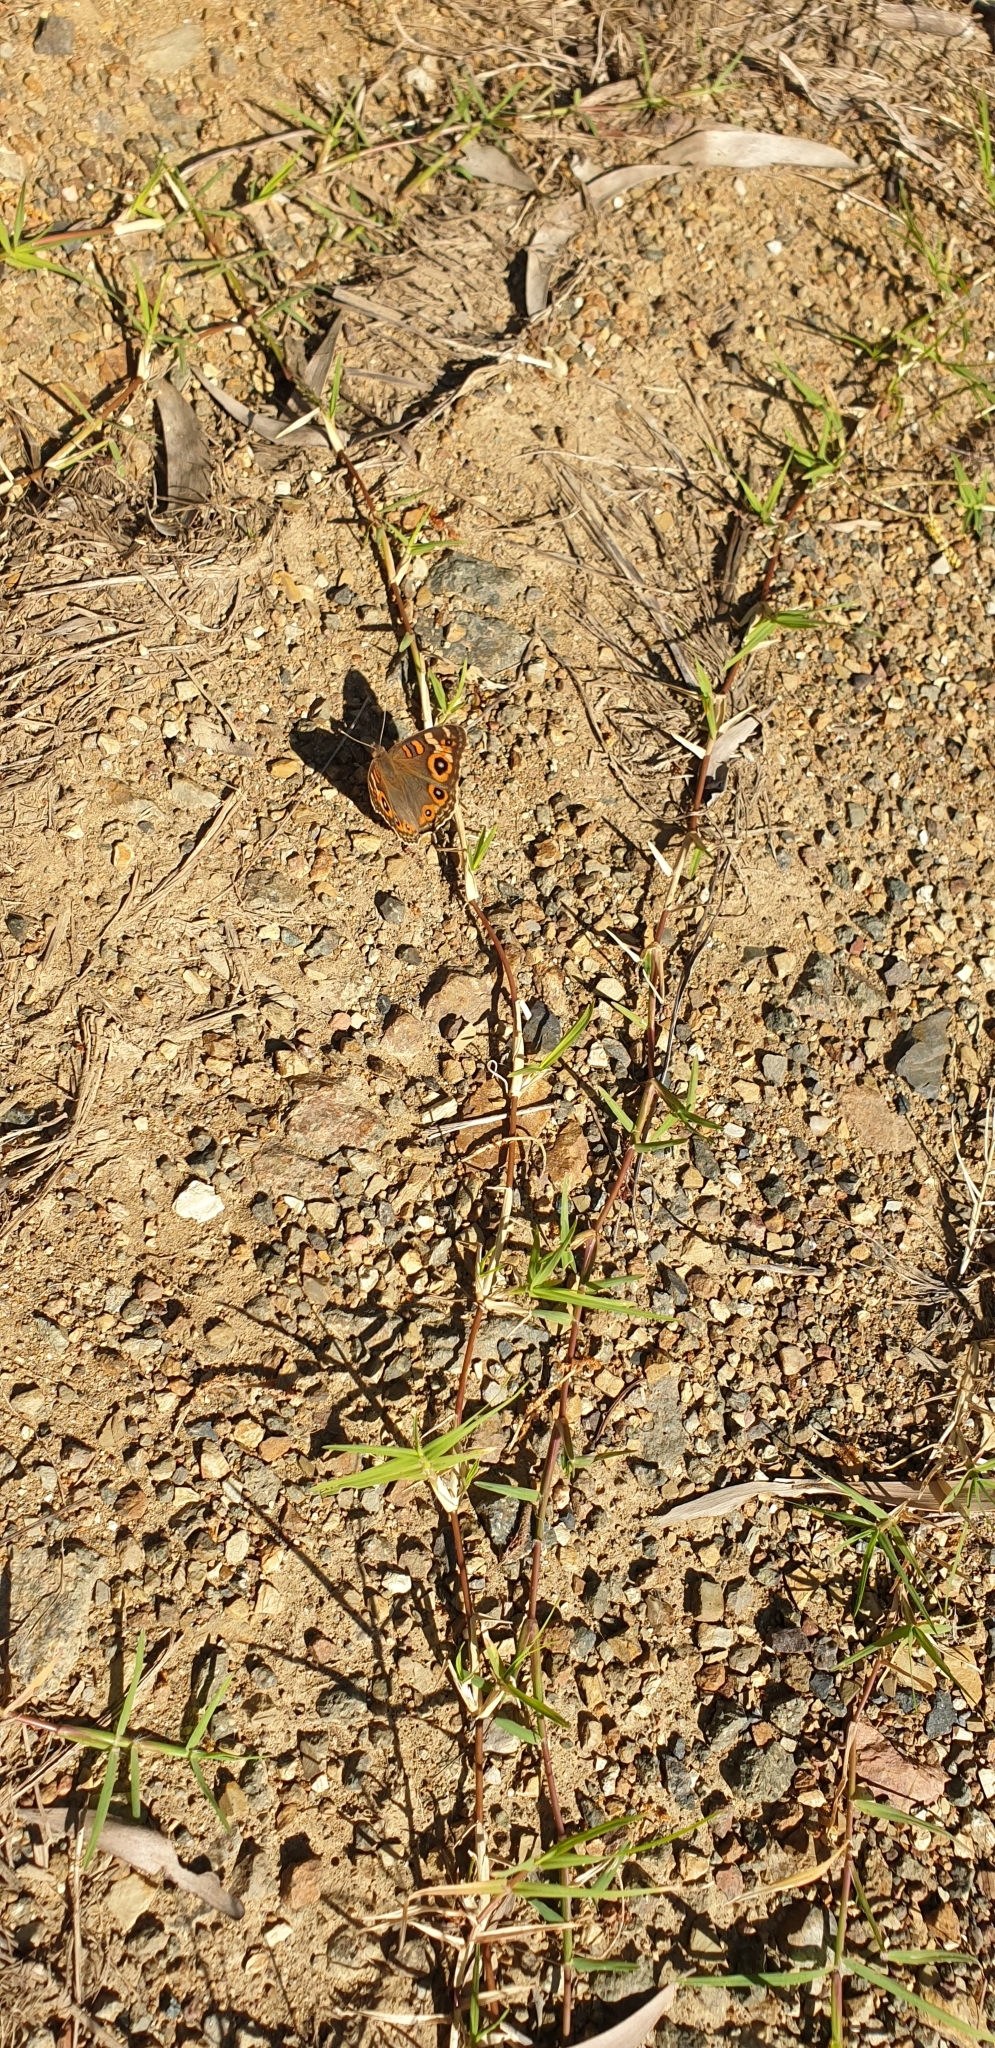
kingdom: Animalia
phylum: Arthropoda
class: Insecta
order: Lepidoptera
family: Nymphalidae
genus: Junonia
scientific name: Junonia villida
